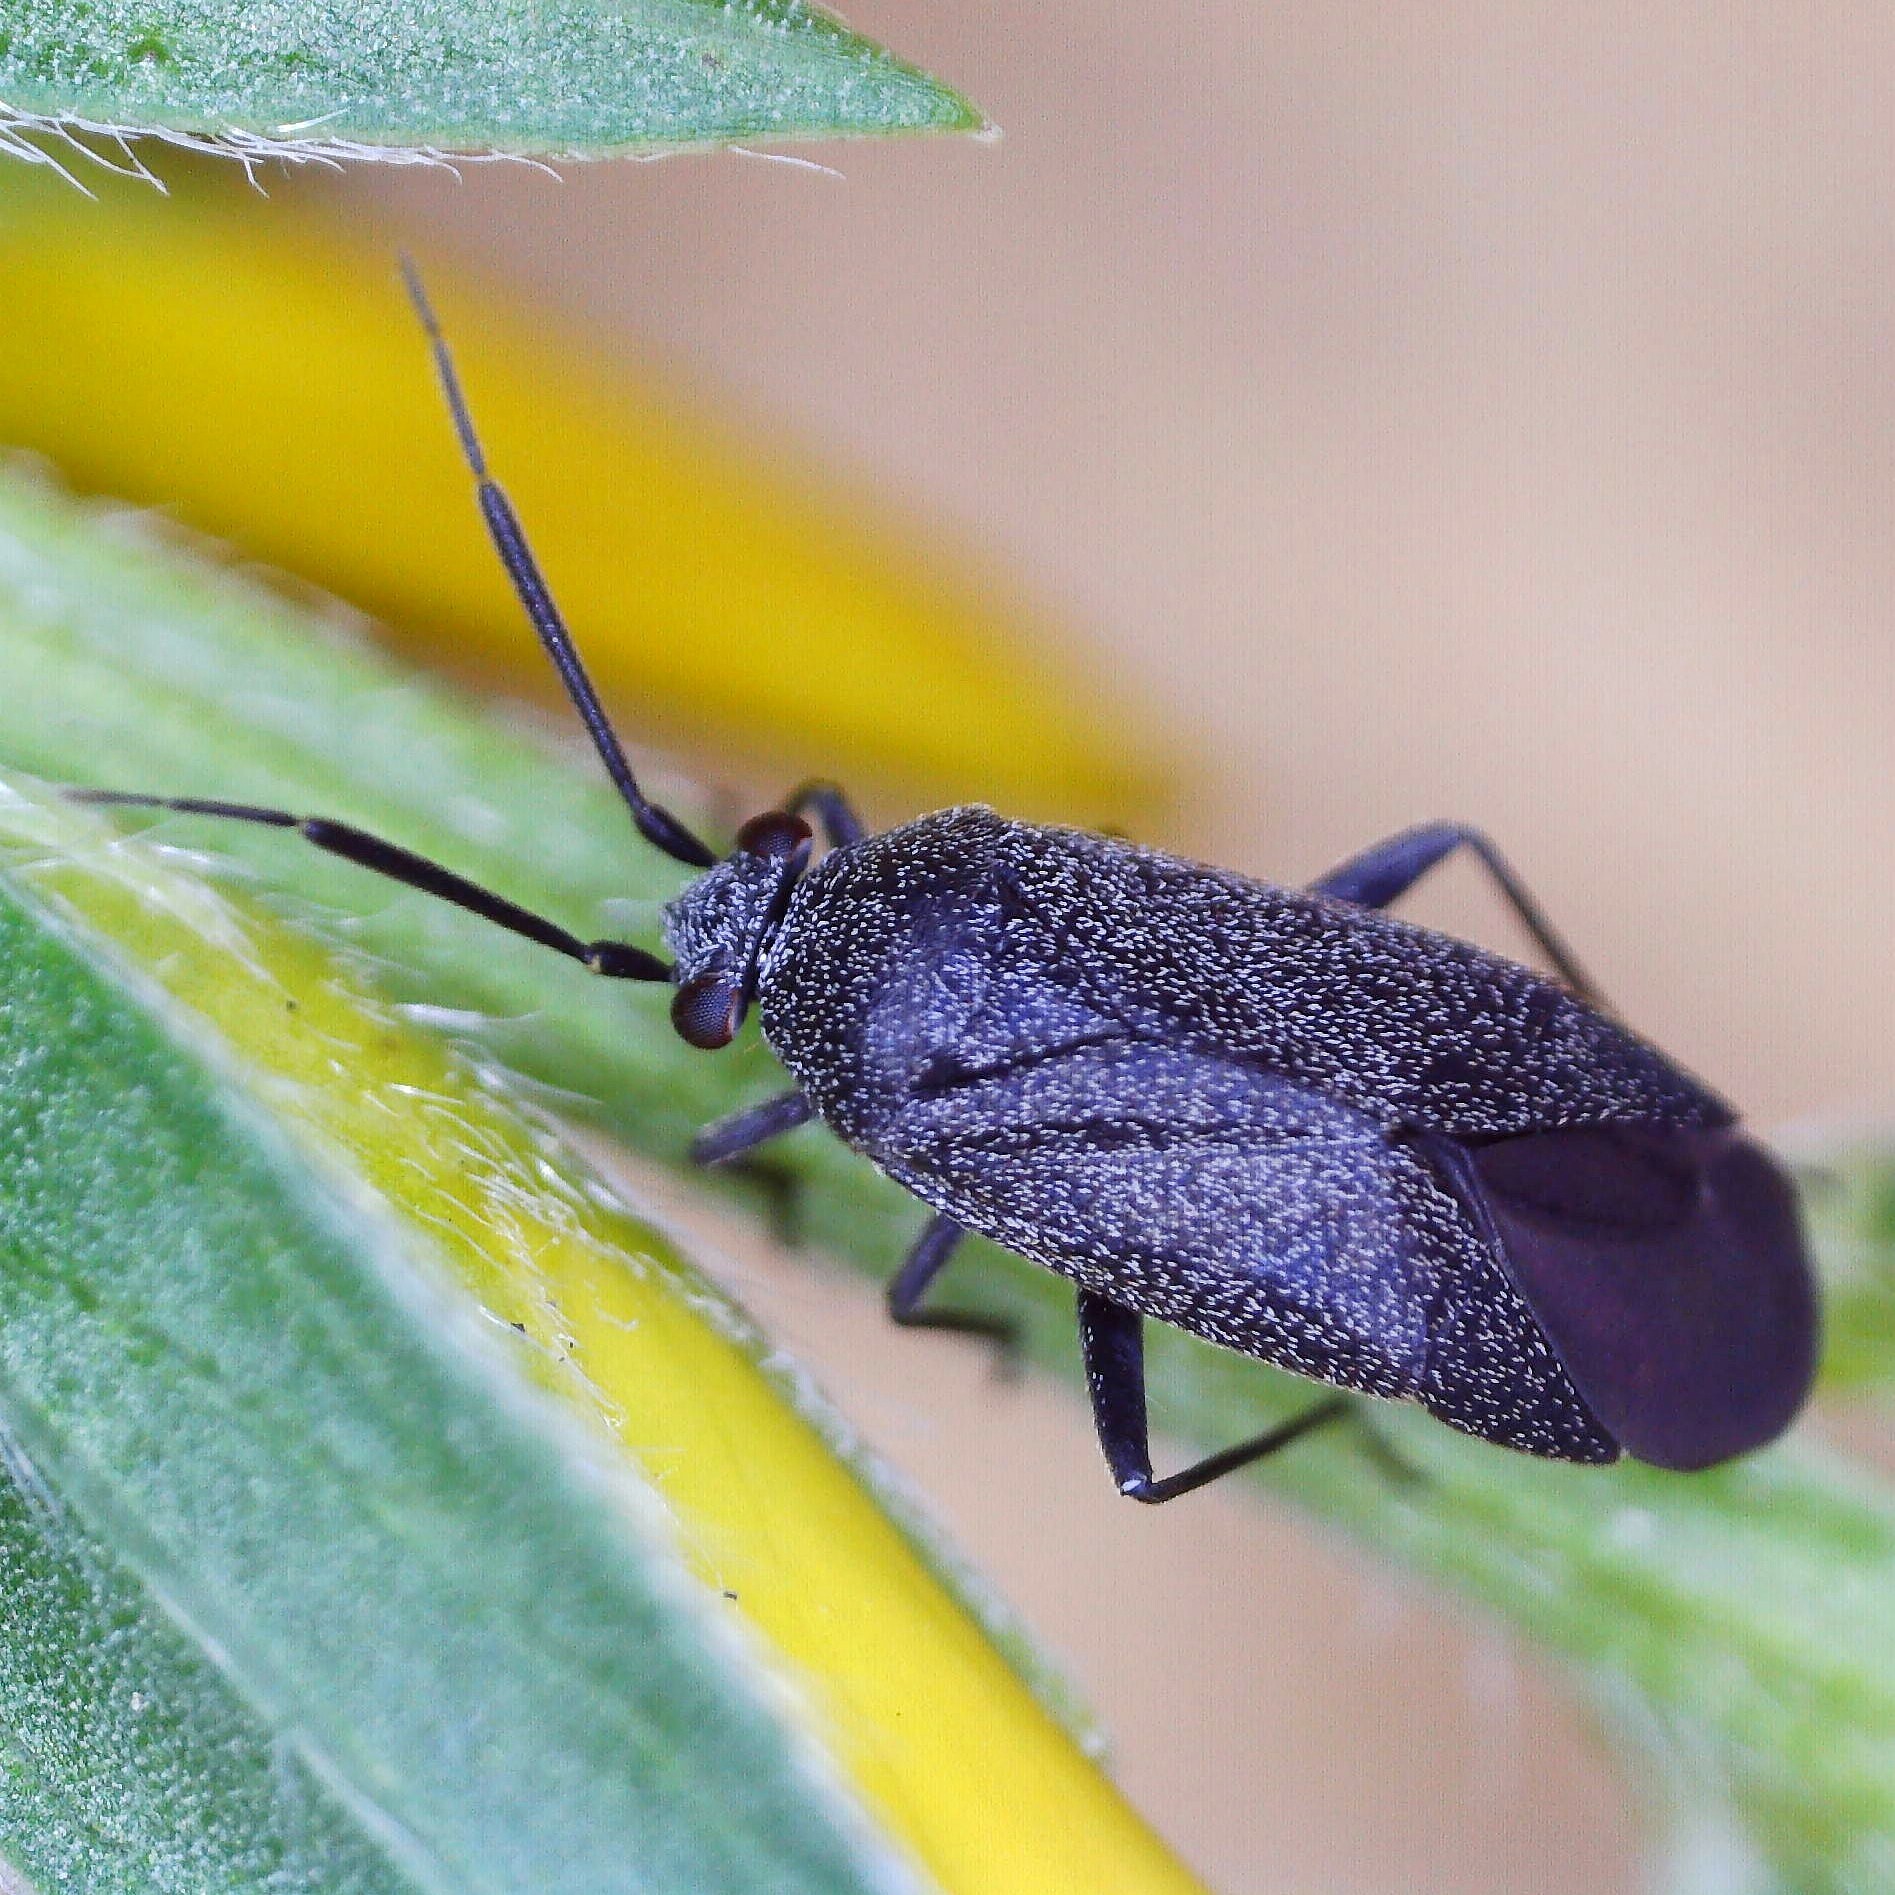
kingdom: Animalia
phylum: Arthropoda
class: Insecta
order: Hemiptera
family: Miridae
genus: Heterocordylus
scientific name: Heterocordylus genistae
